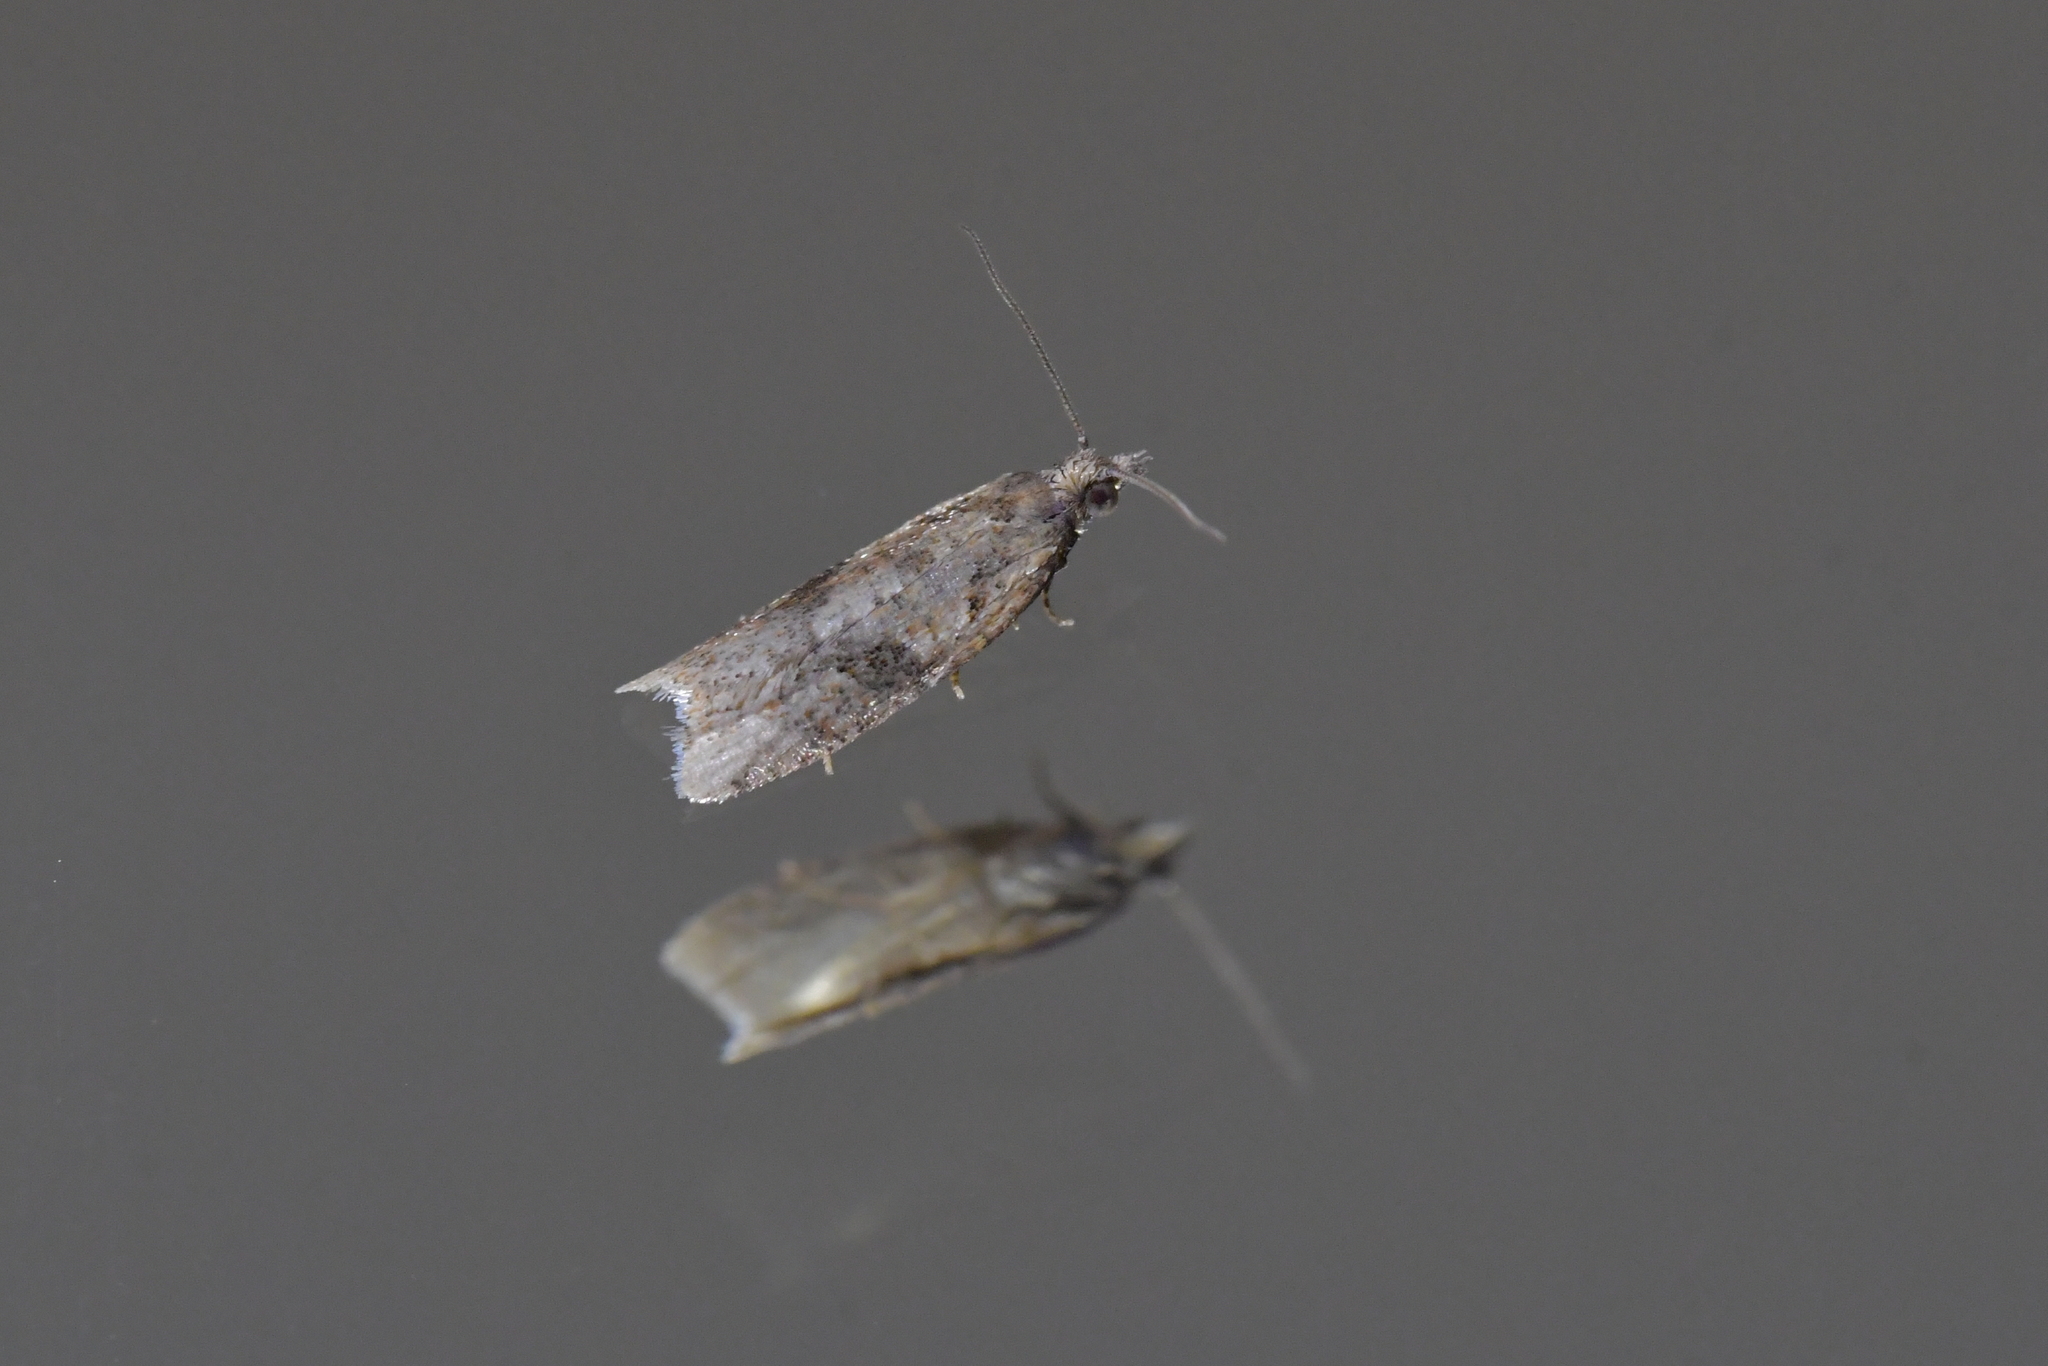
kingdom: Animalia
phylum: Arthropoda
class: Insecta
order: Lepidoptera
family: Tortricidae
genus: Capua
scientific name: Capua semiferana
